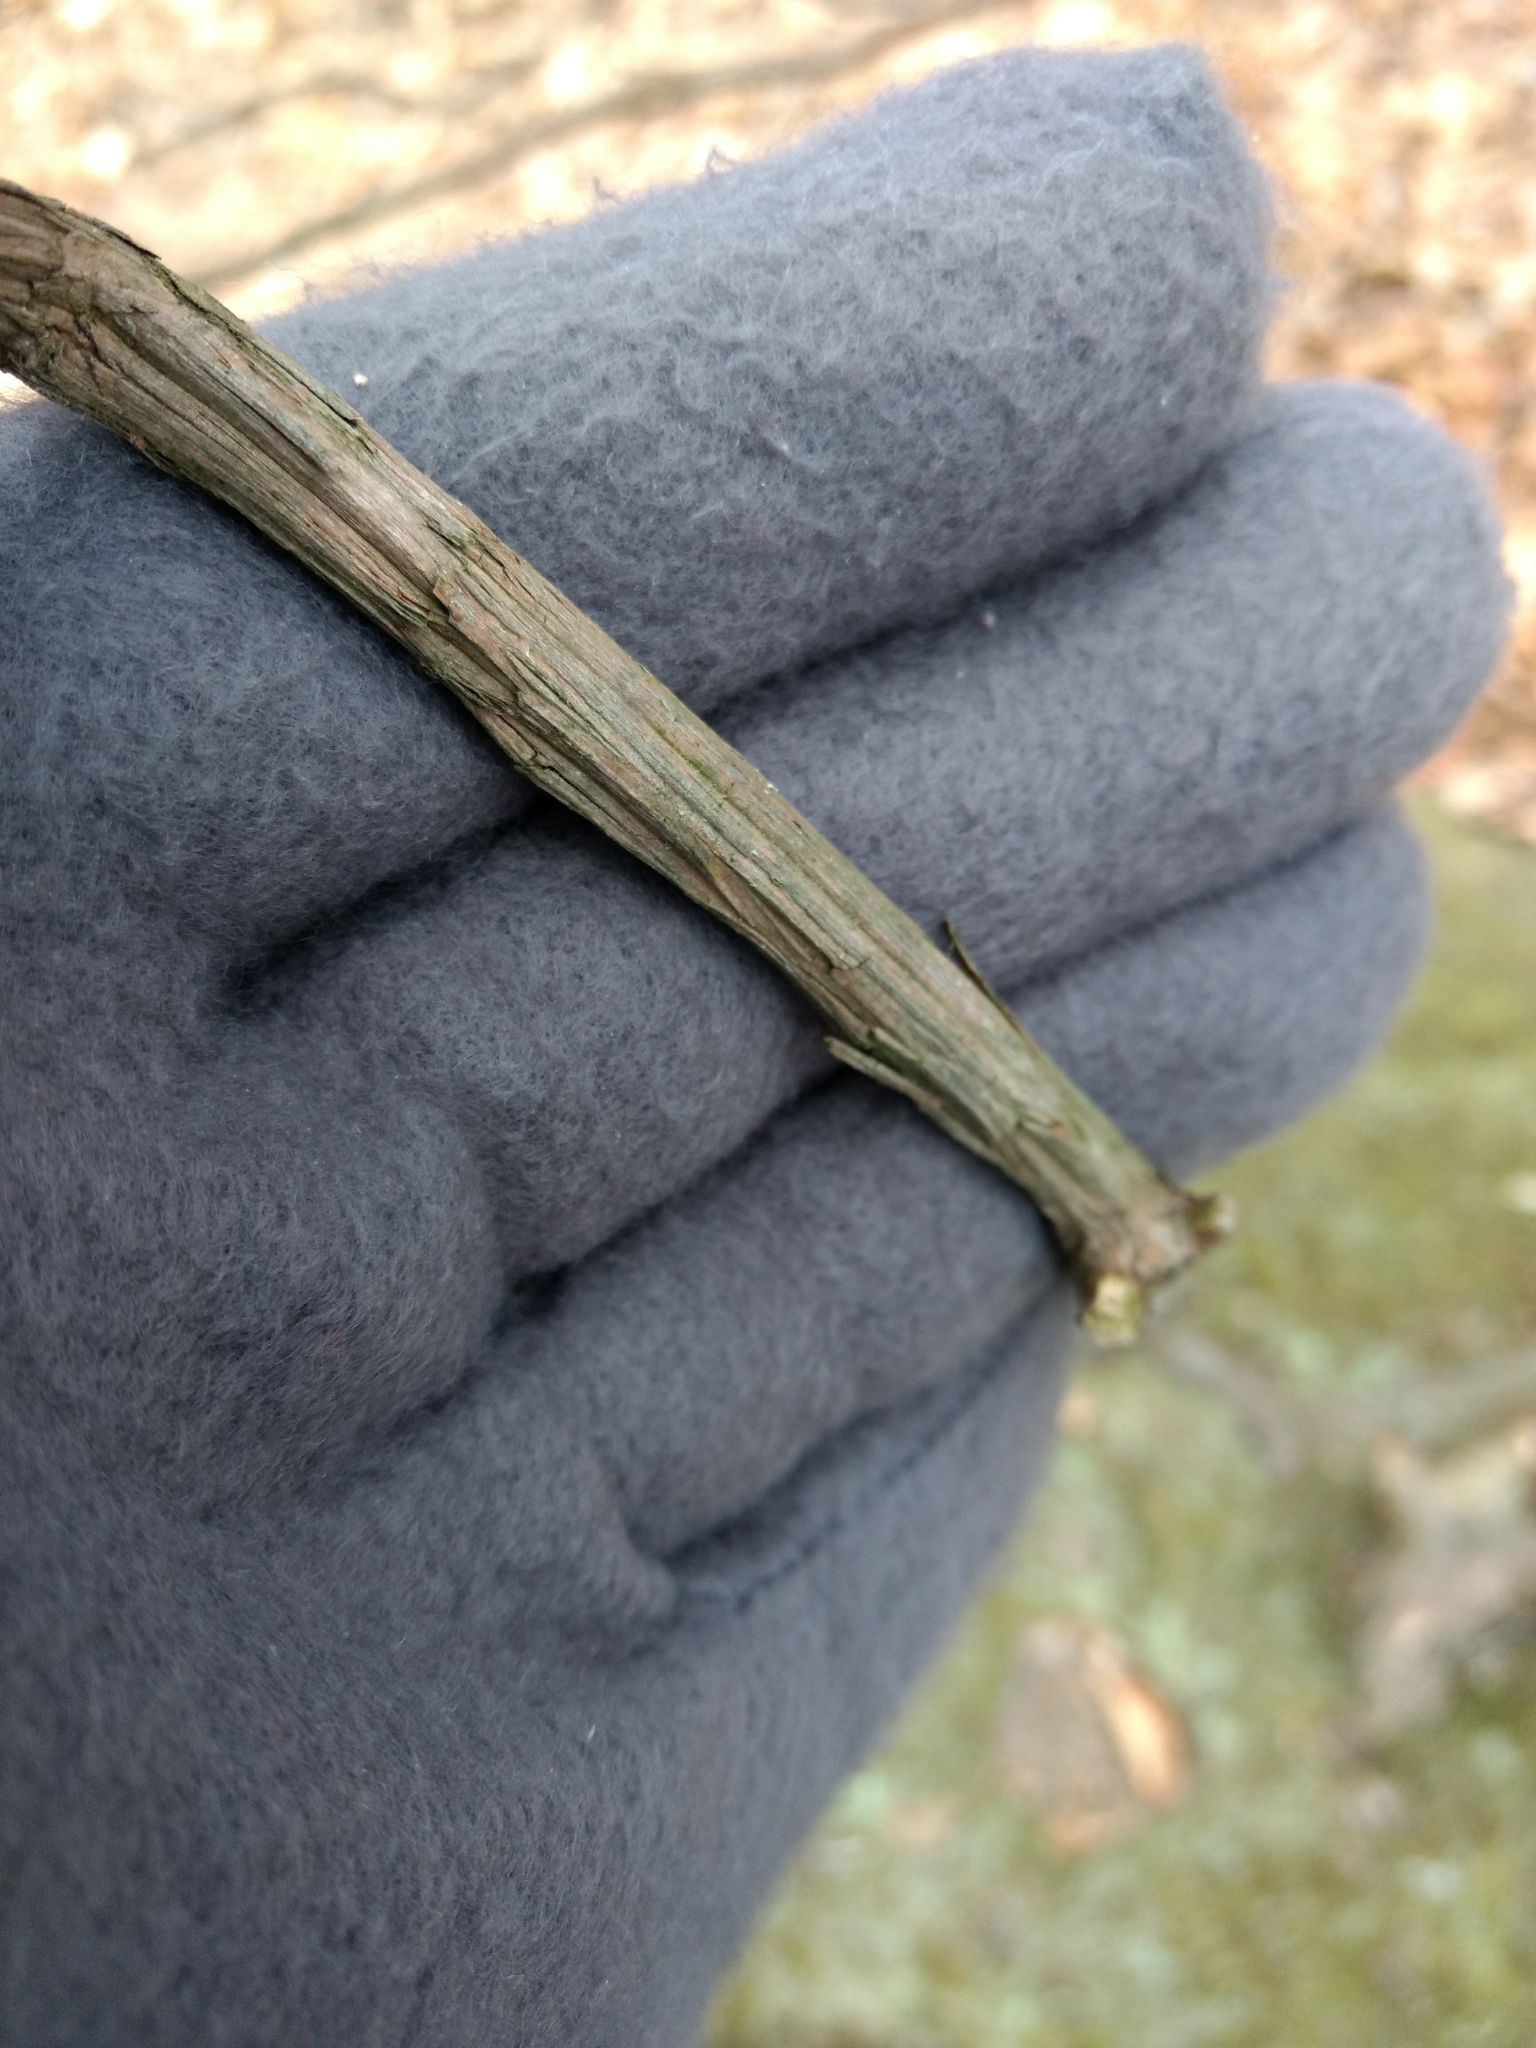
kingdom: Plantae
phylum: Tracheophyta
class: Magnoliopsida
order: Ericales
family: Ericaceae
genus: Kalmia
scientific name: Kalmia latifolia
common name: Mountain-laurel
